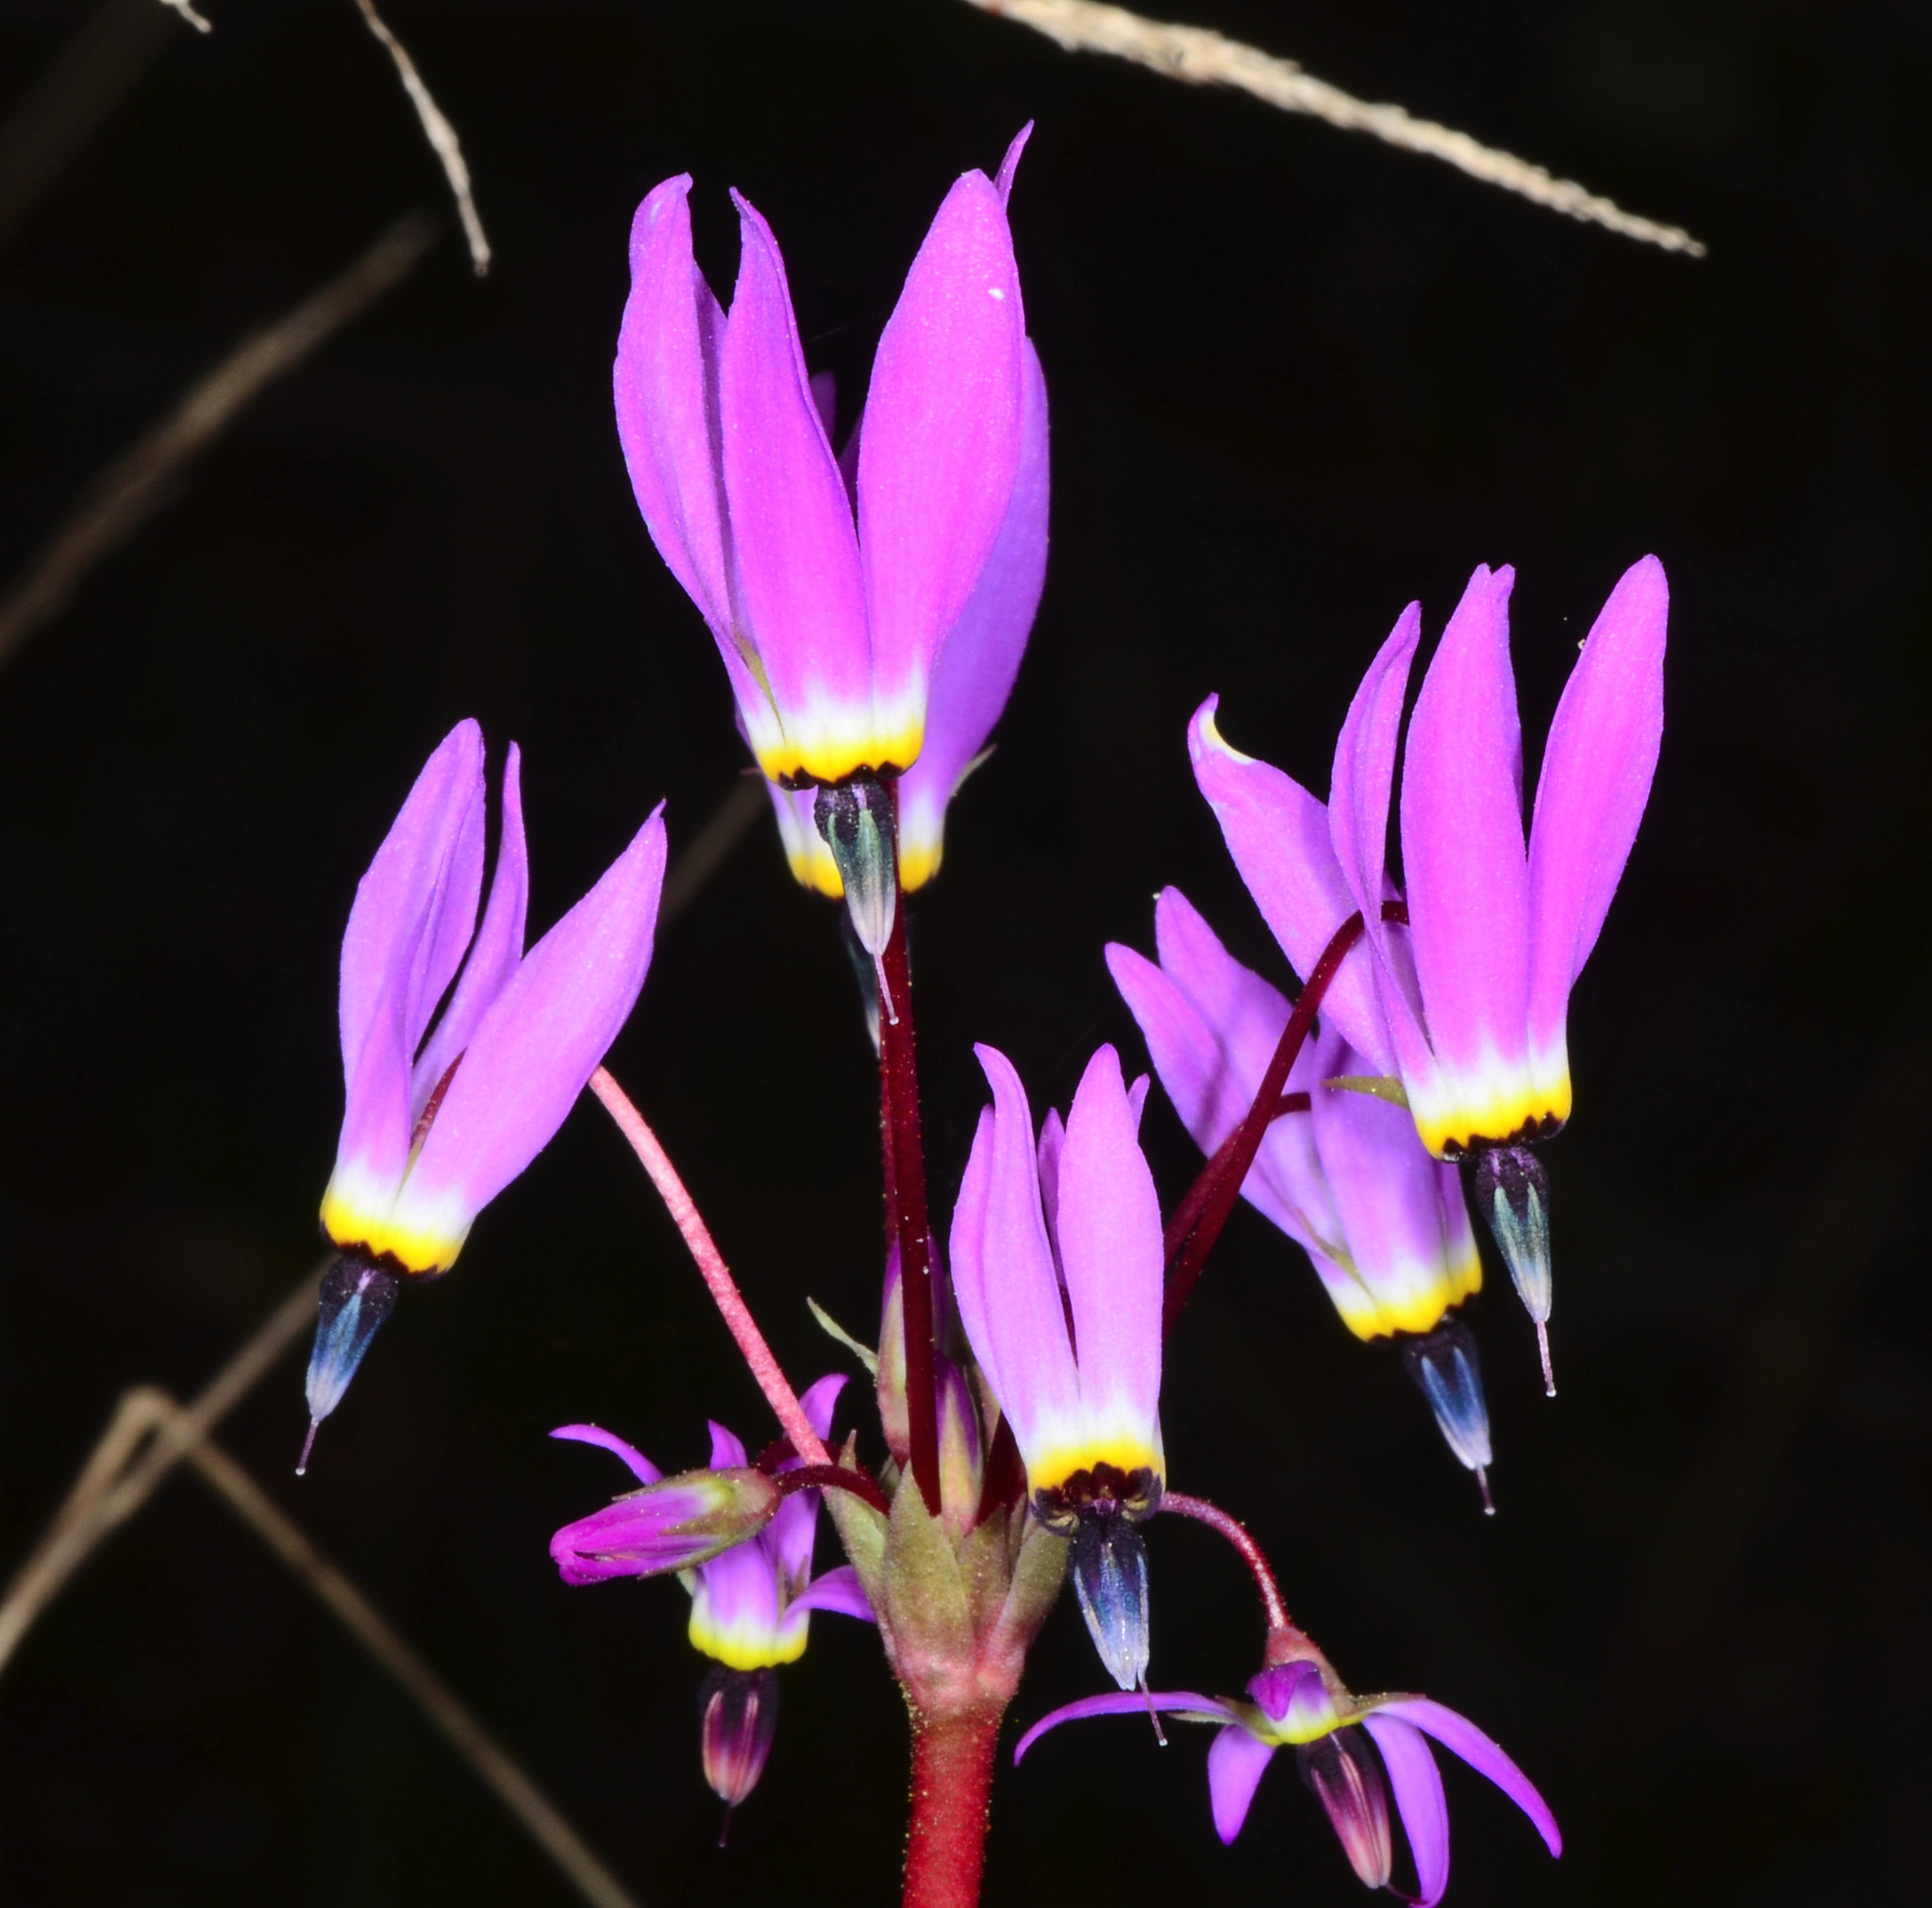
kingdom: Plantae
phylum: Tracheophyta
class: Magnoliopsida
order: Ericales
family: Primulaceae
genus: Dodecatheon
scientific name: Dodecatheon hendersonii
